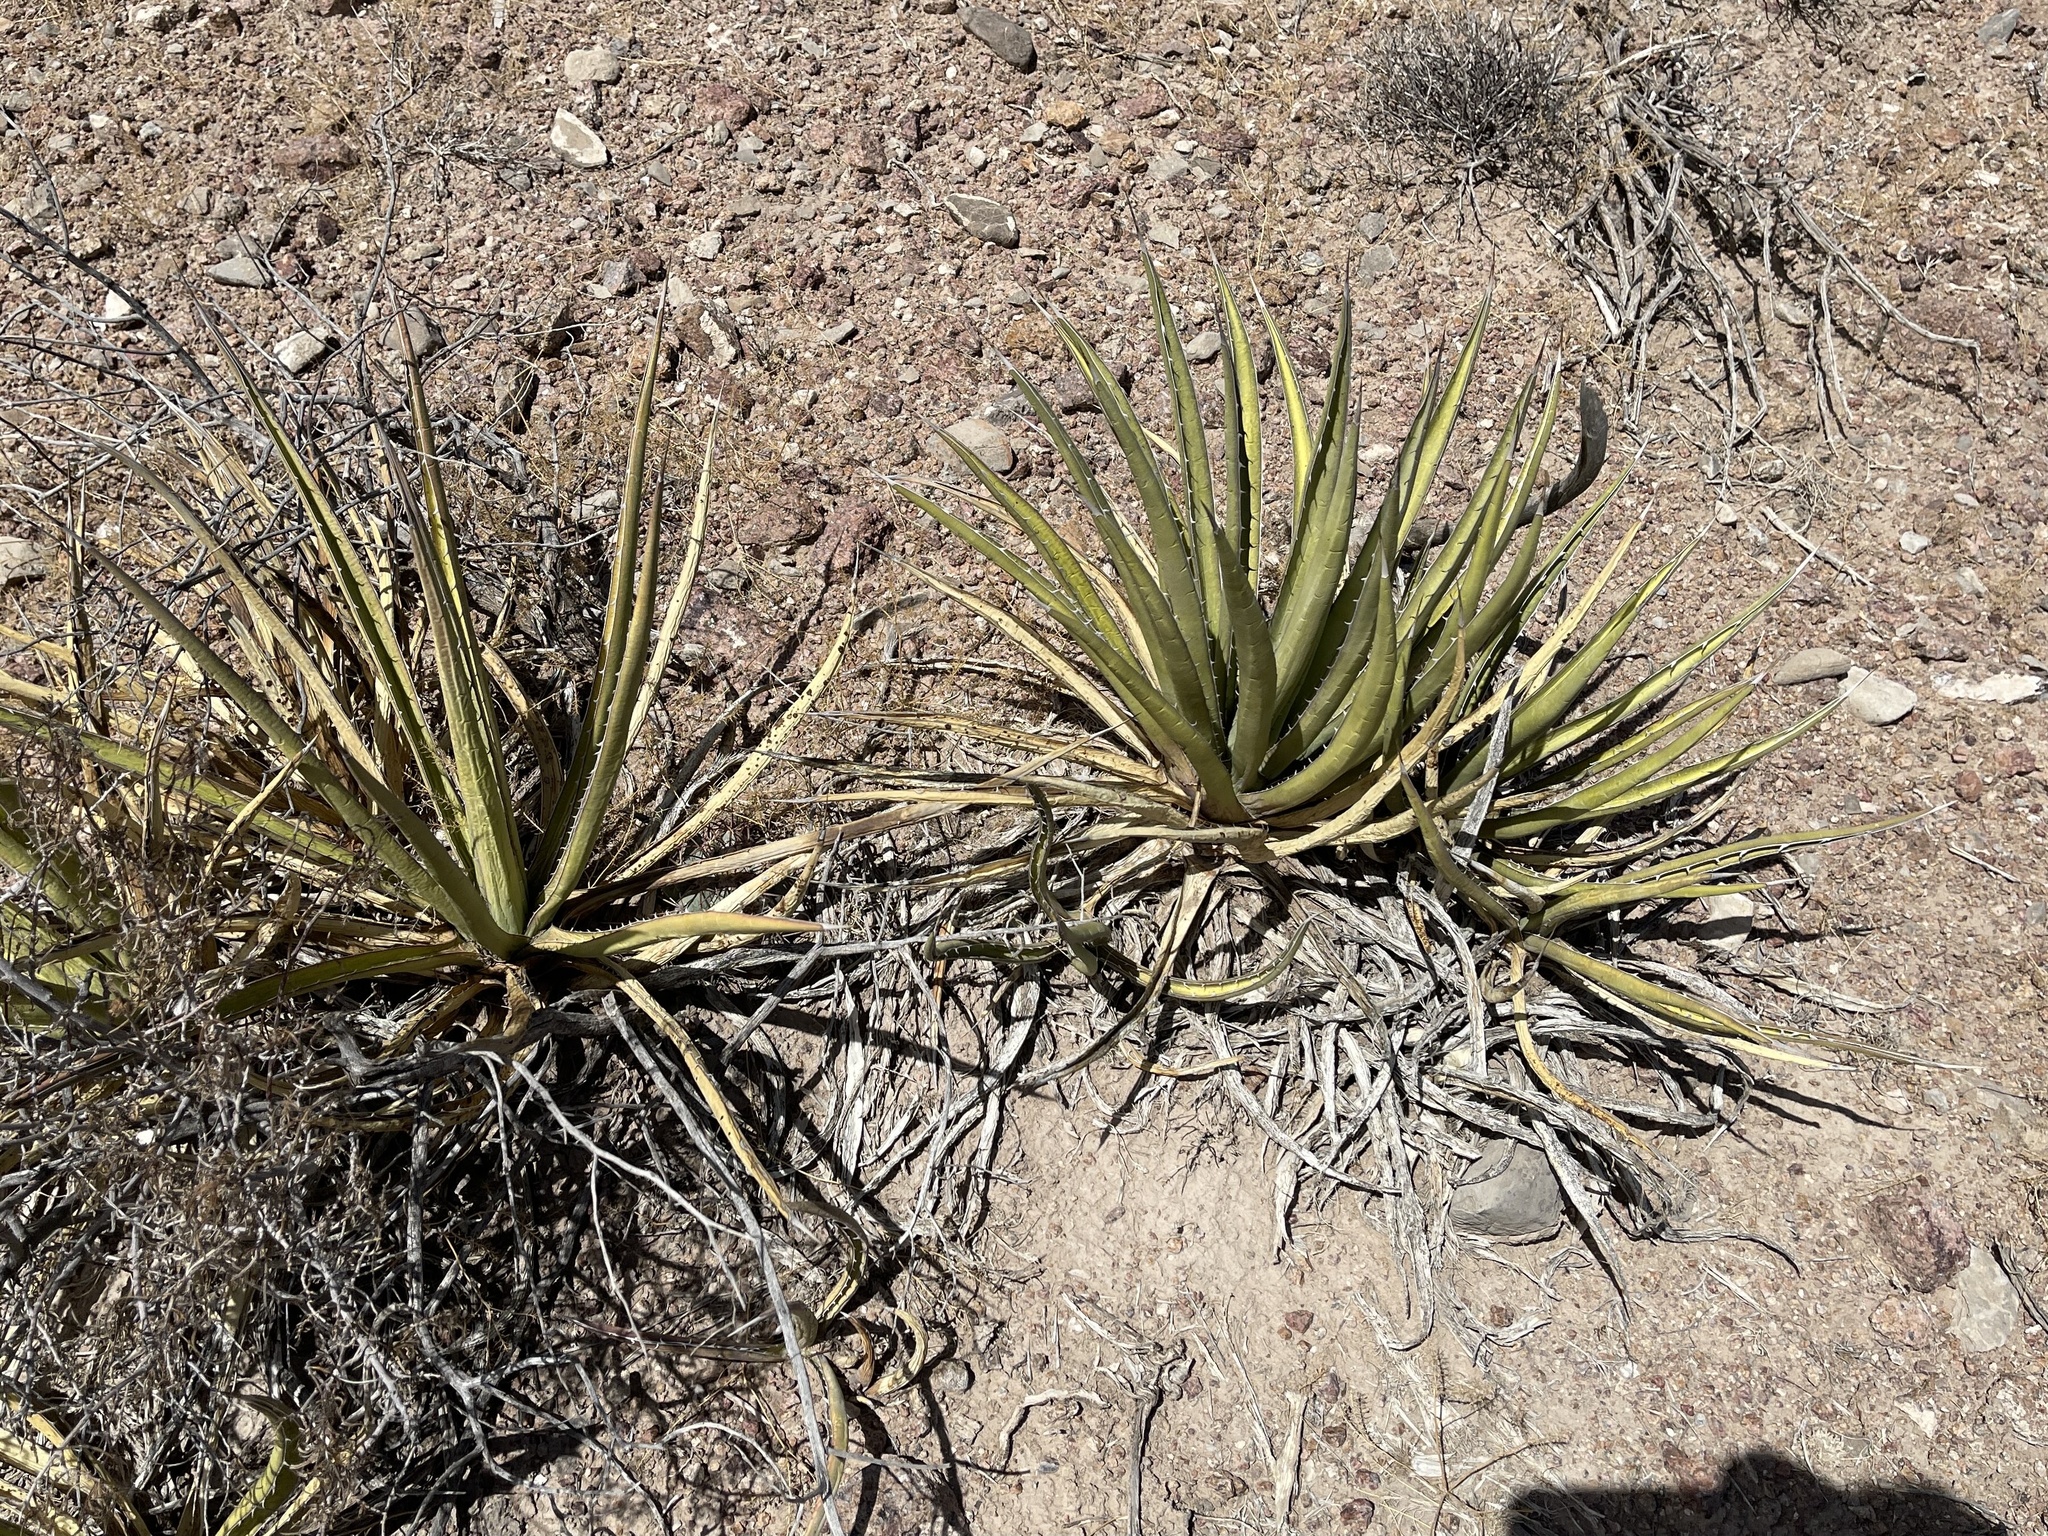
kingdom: Plantae
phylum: Tracheophyta
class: Liliopsida
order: Asparagales
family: Asparagaceae
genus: Agave
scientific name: Agave lechuguilla
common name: Lecheguilla agave
